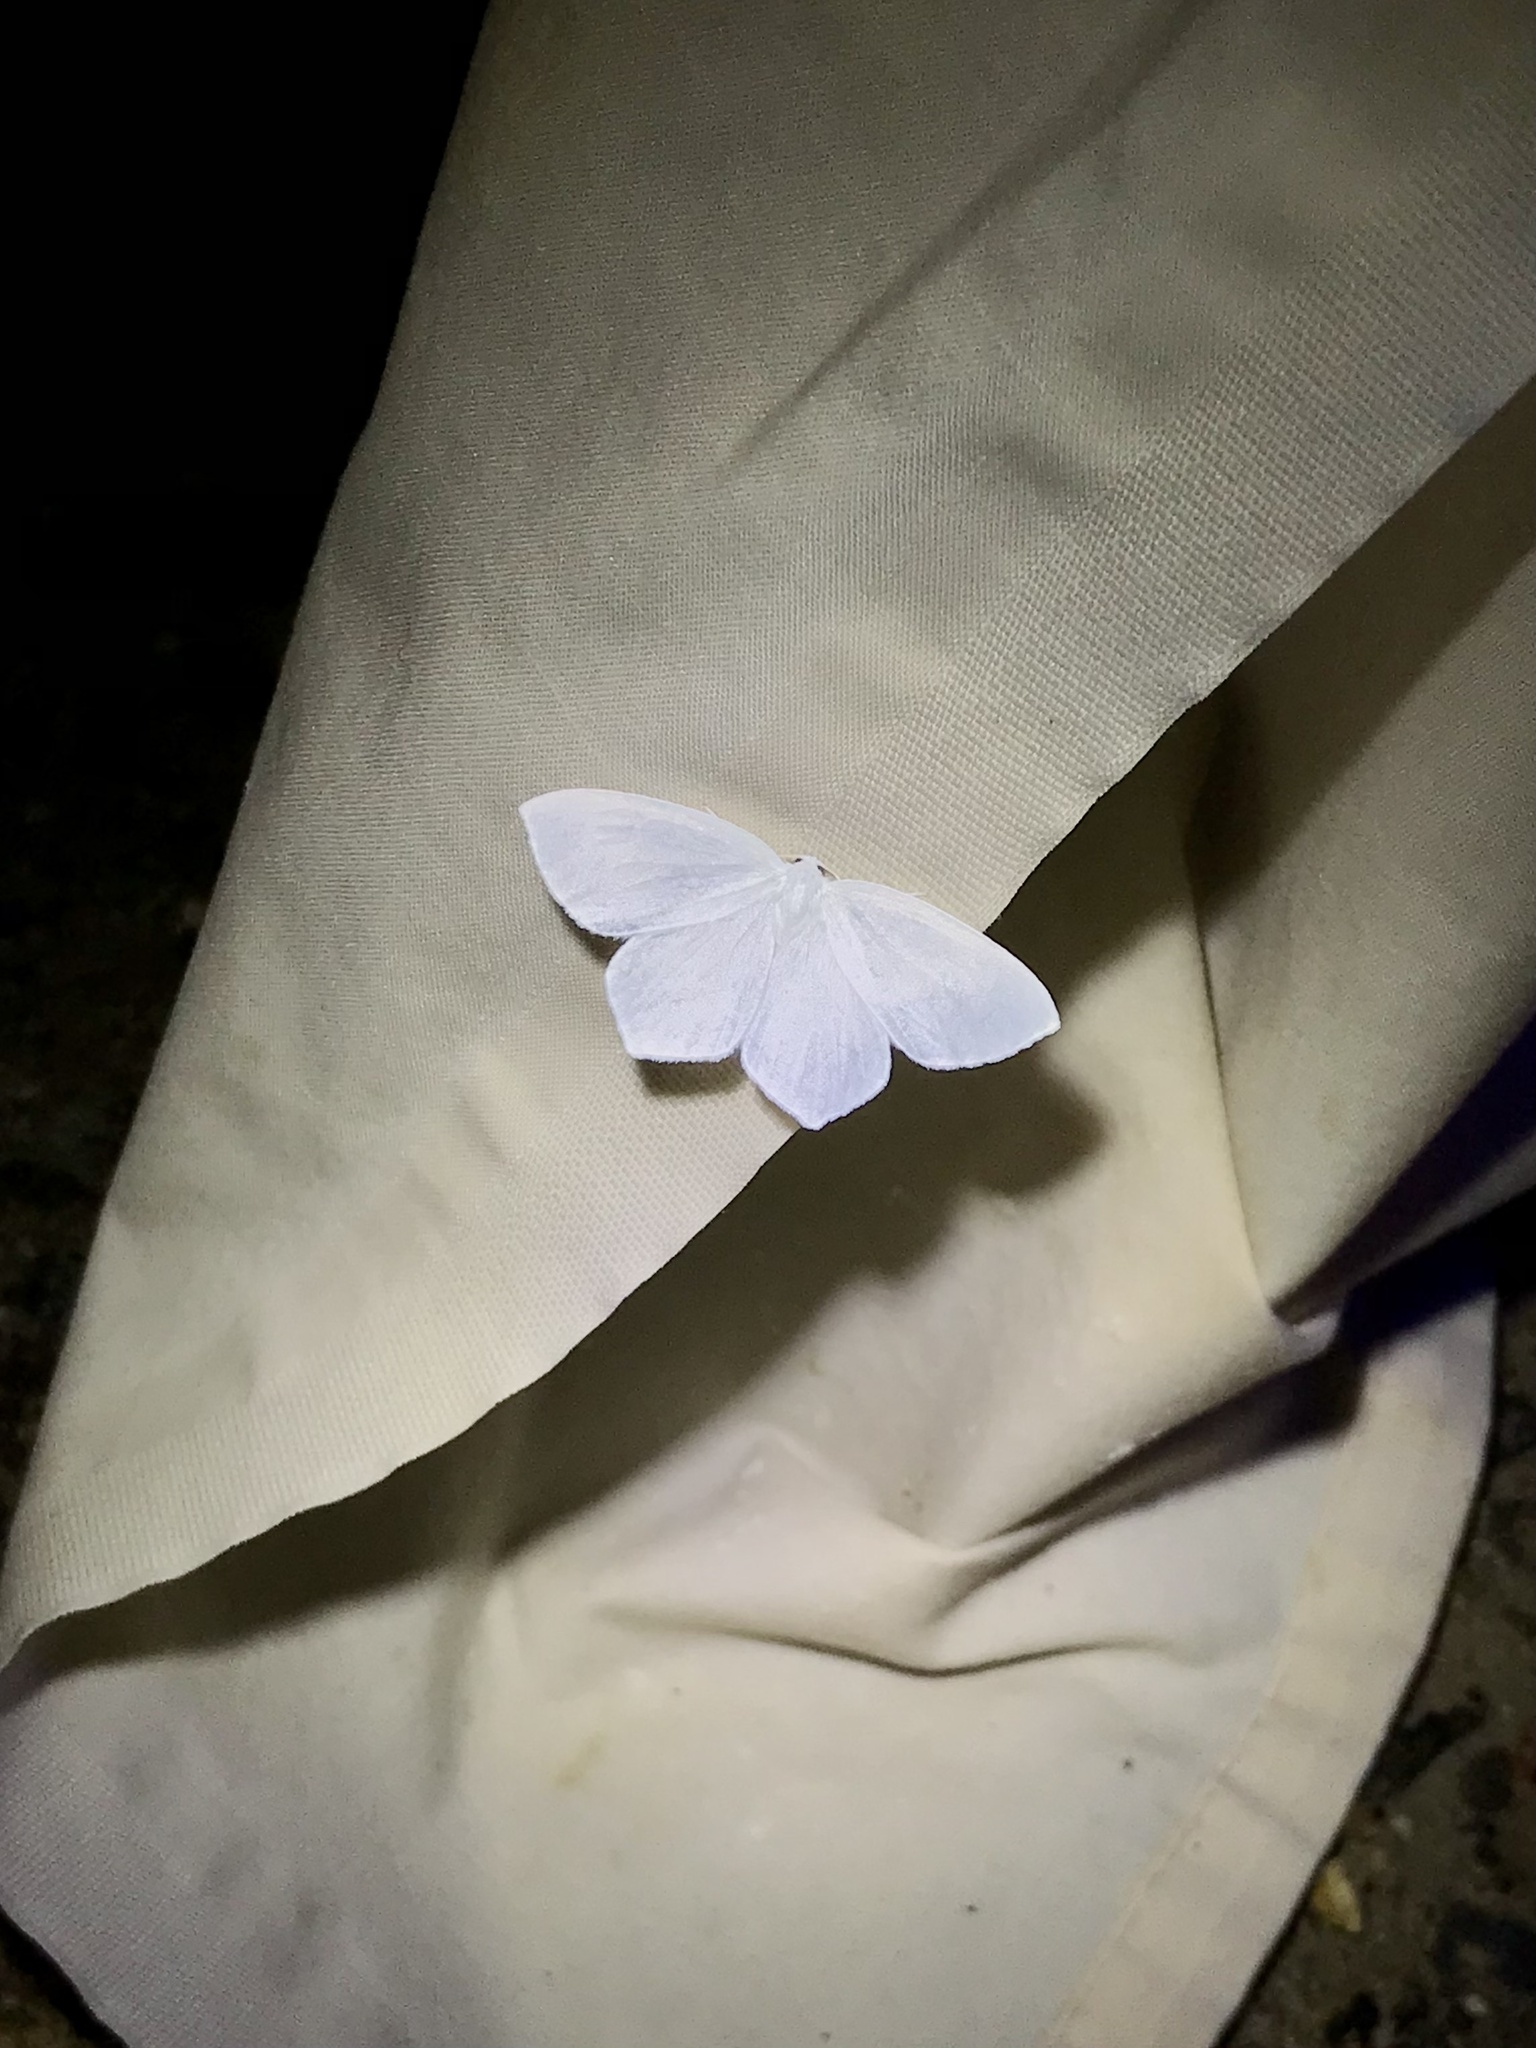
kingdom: Animalia
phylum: Arthropoda
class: Insecta
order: Lepidoptera
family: Geometridae
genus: Eugonobapta
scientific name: Eugonobapta nivosaria
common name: Snowy geometer
